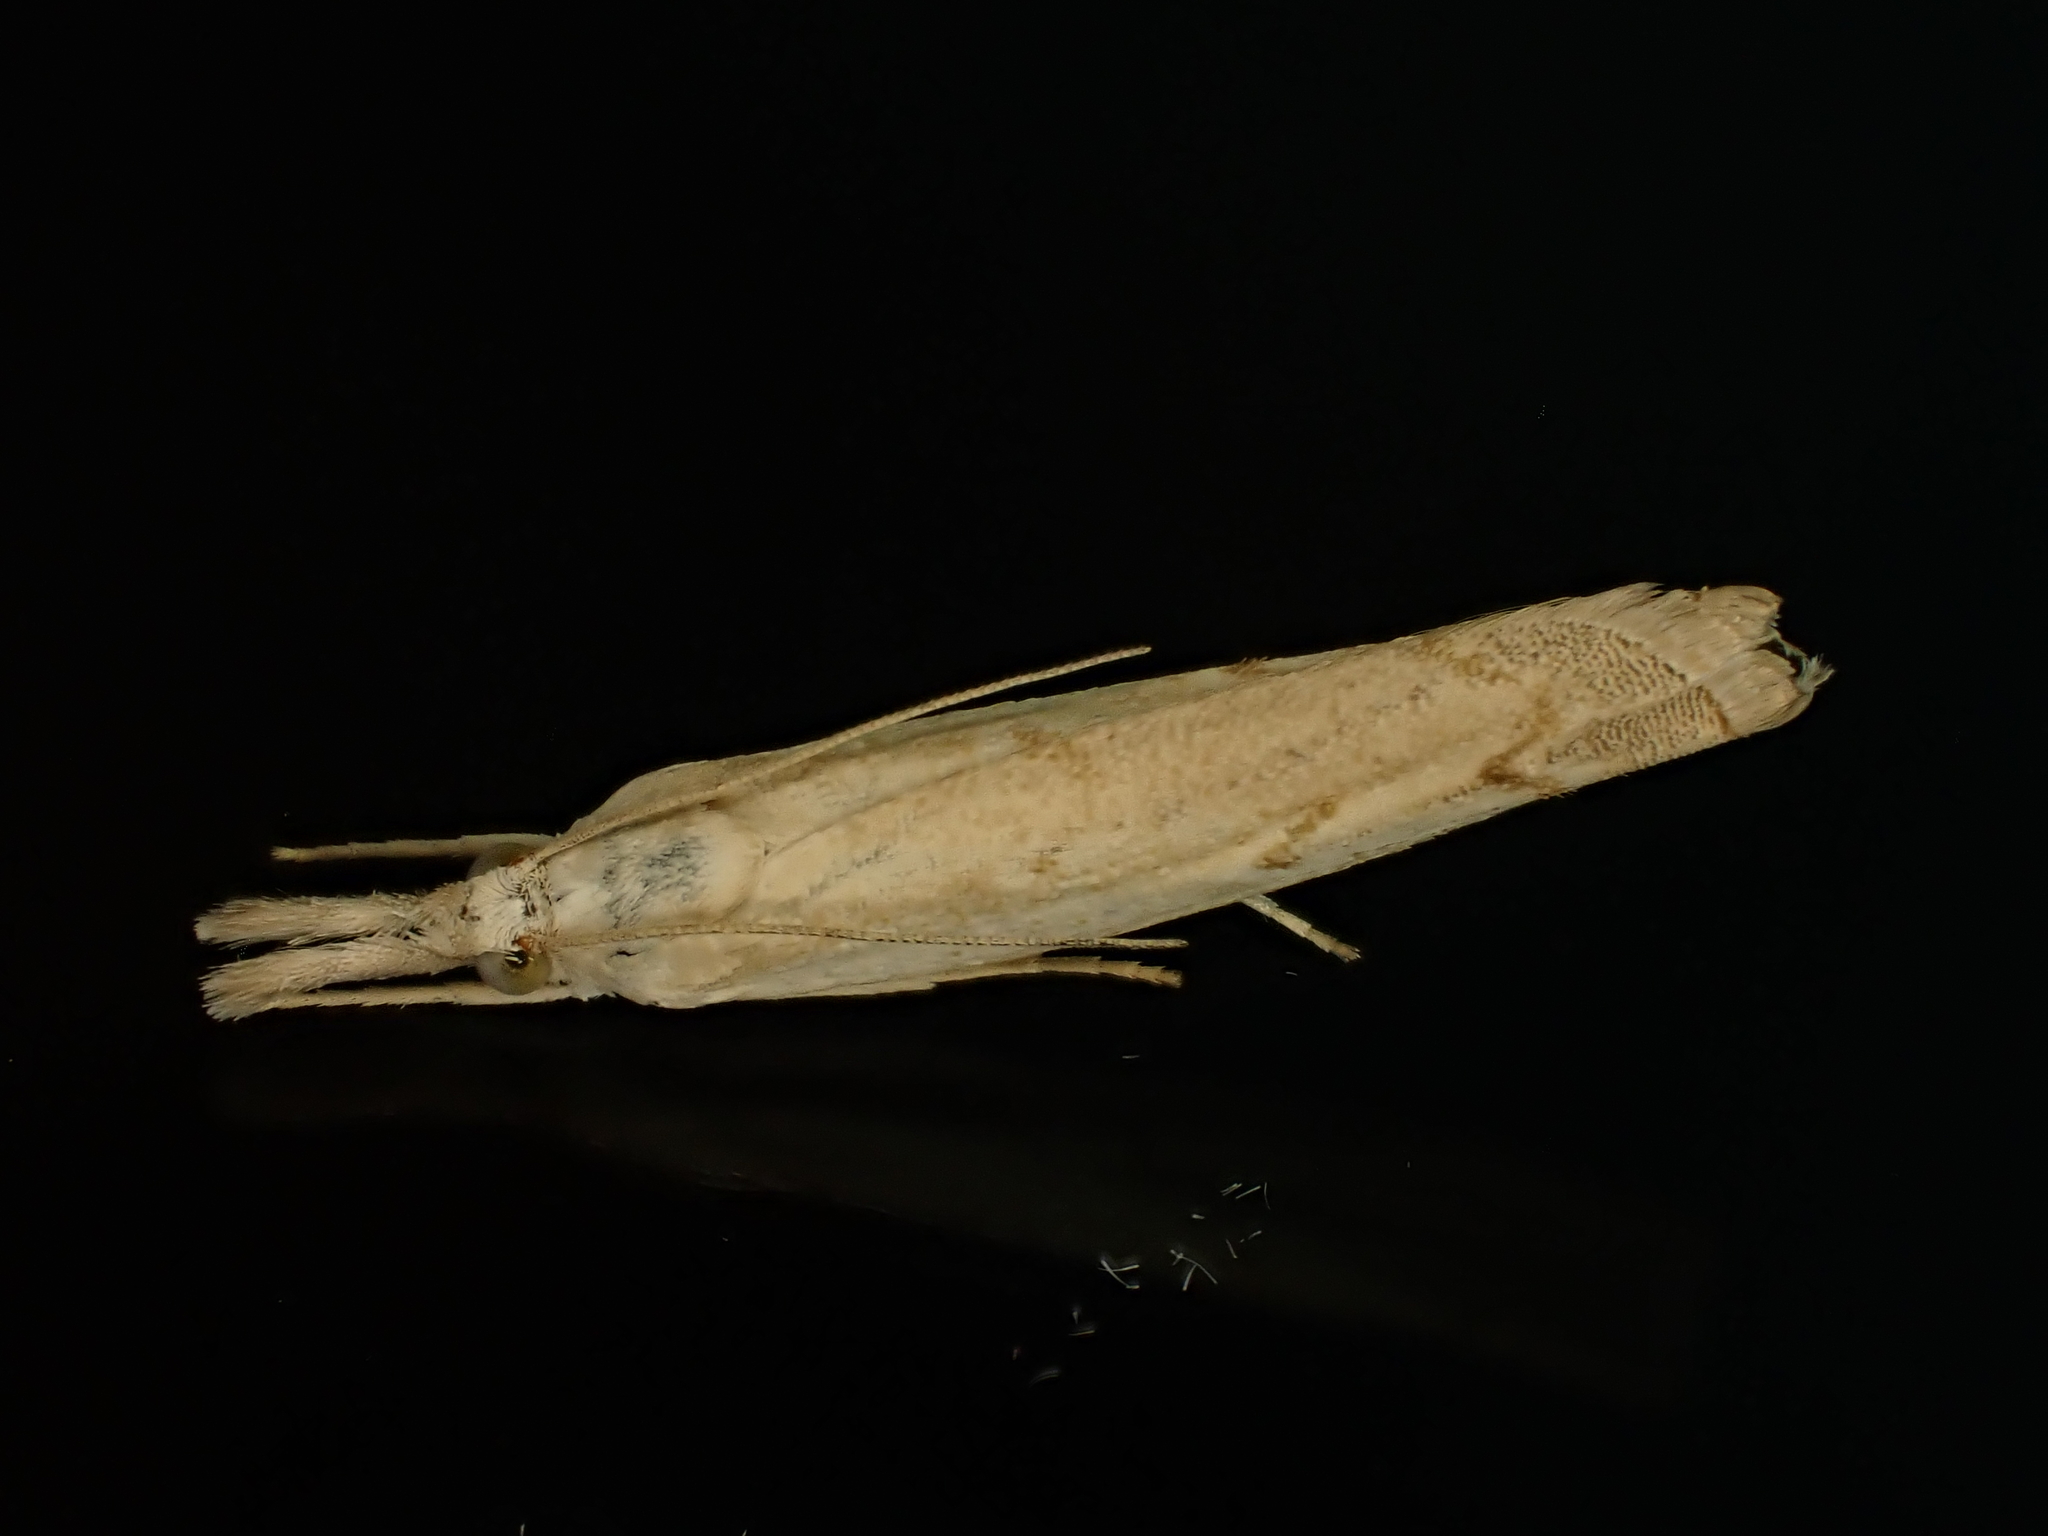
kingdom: Animalia
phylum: Arthropoda
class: Insecta
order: Lepidoptera
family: Crambidae
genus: Culladia
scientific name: Culladia cuneiferellus
